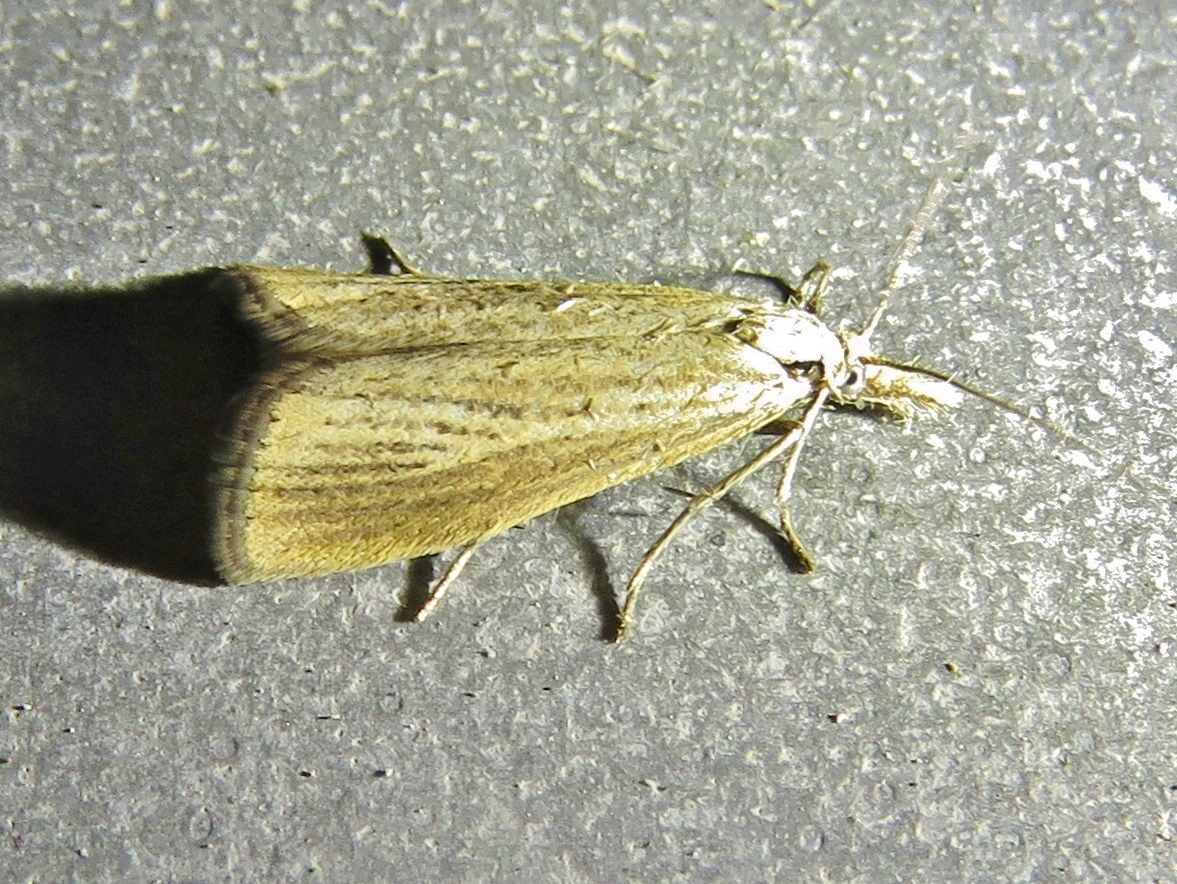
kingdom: Animalia
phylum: Arthropoda
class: Insecta
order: Lepidoptera
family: Crambidae
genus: Agriphila
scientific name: Agriphila straminella
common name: Straw grass-veneer
